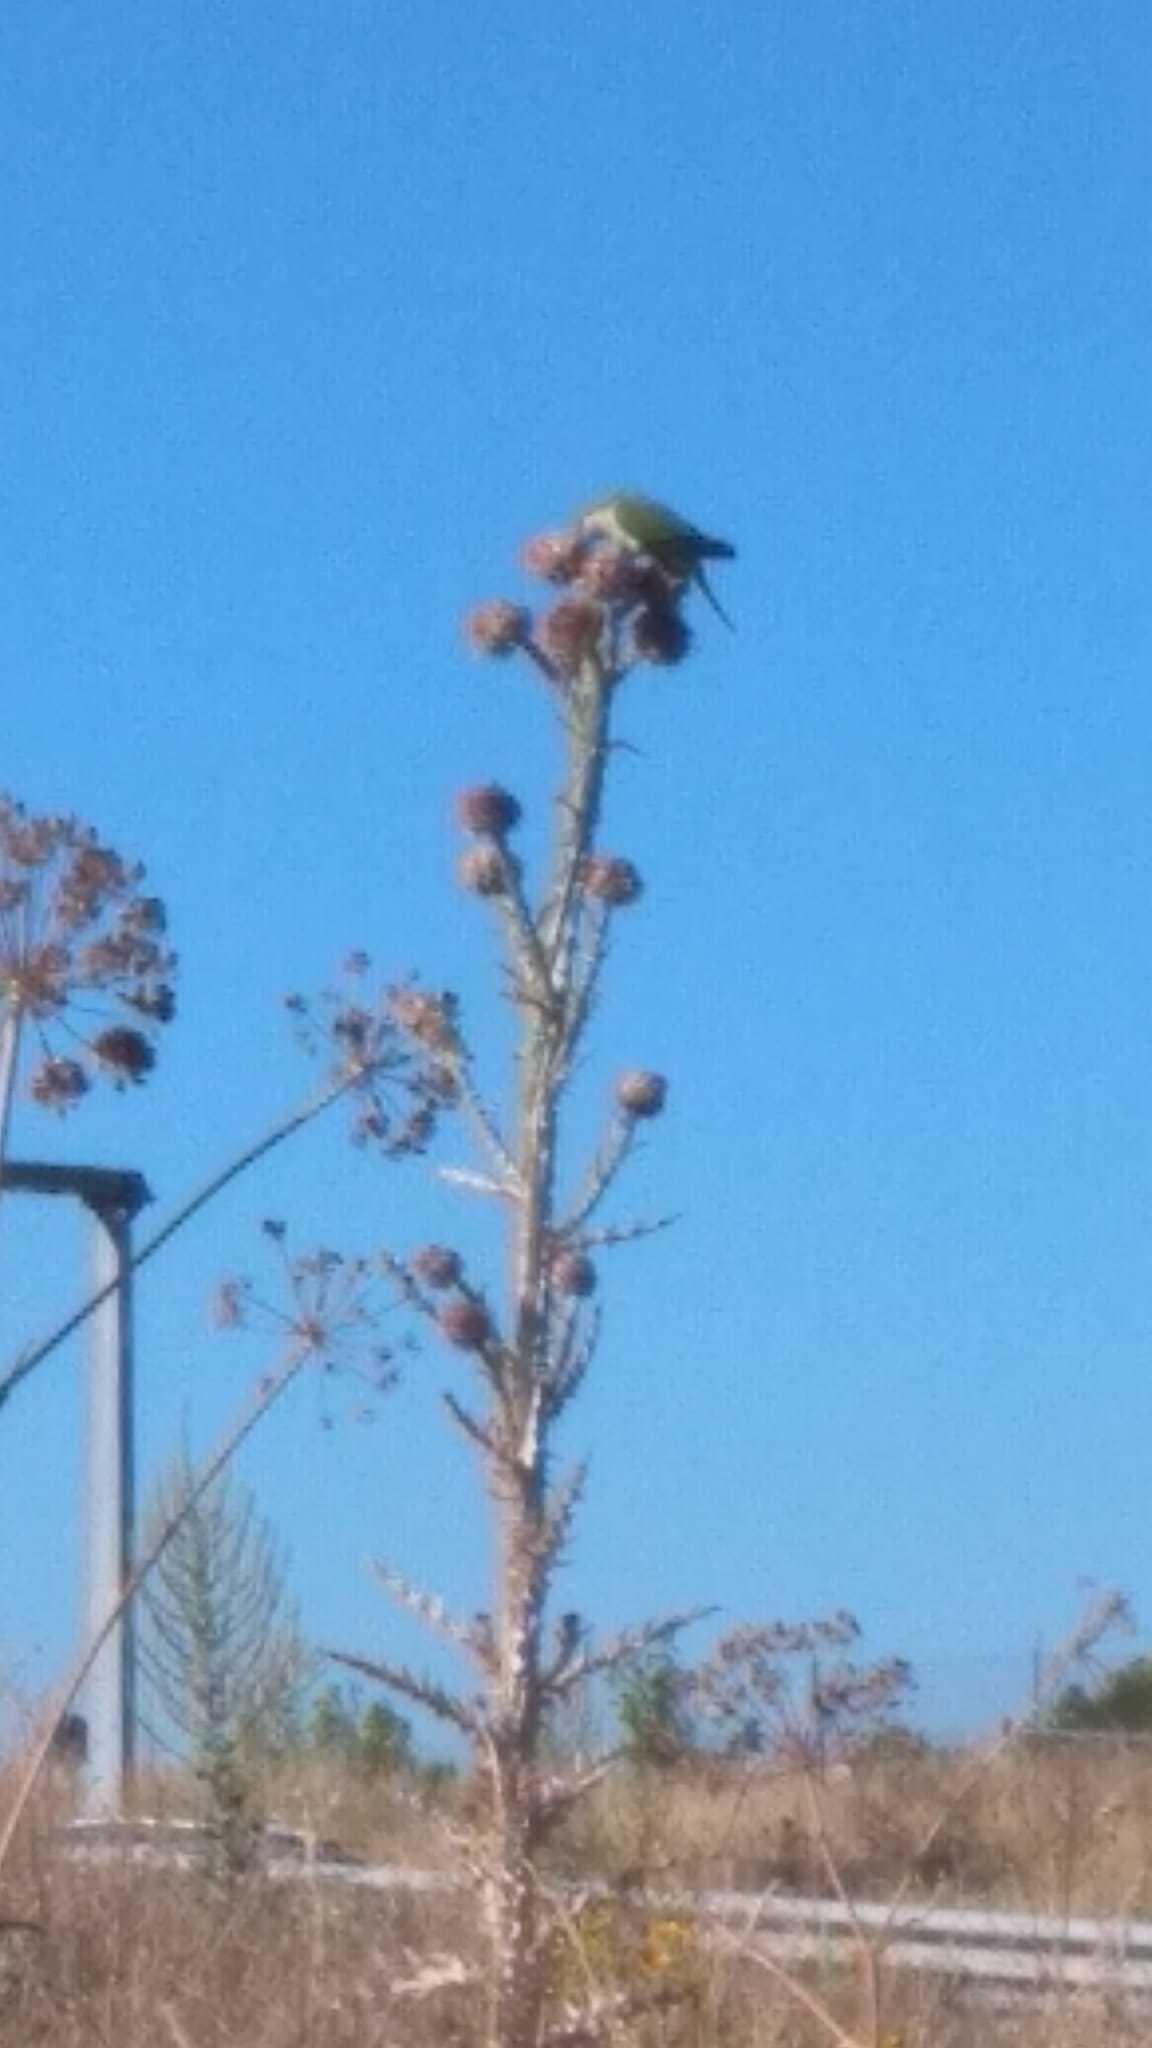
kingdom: Animalia
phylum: Chordata
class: Aves
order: Psittaciformes
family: Psittacidae
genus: Myiopsitta
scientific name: Myiopsitta monachus
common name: Monk parakeet
